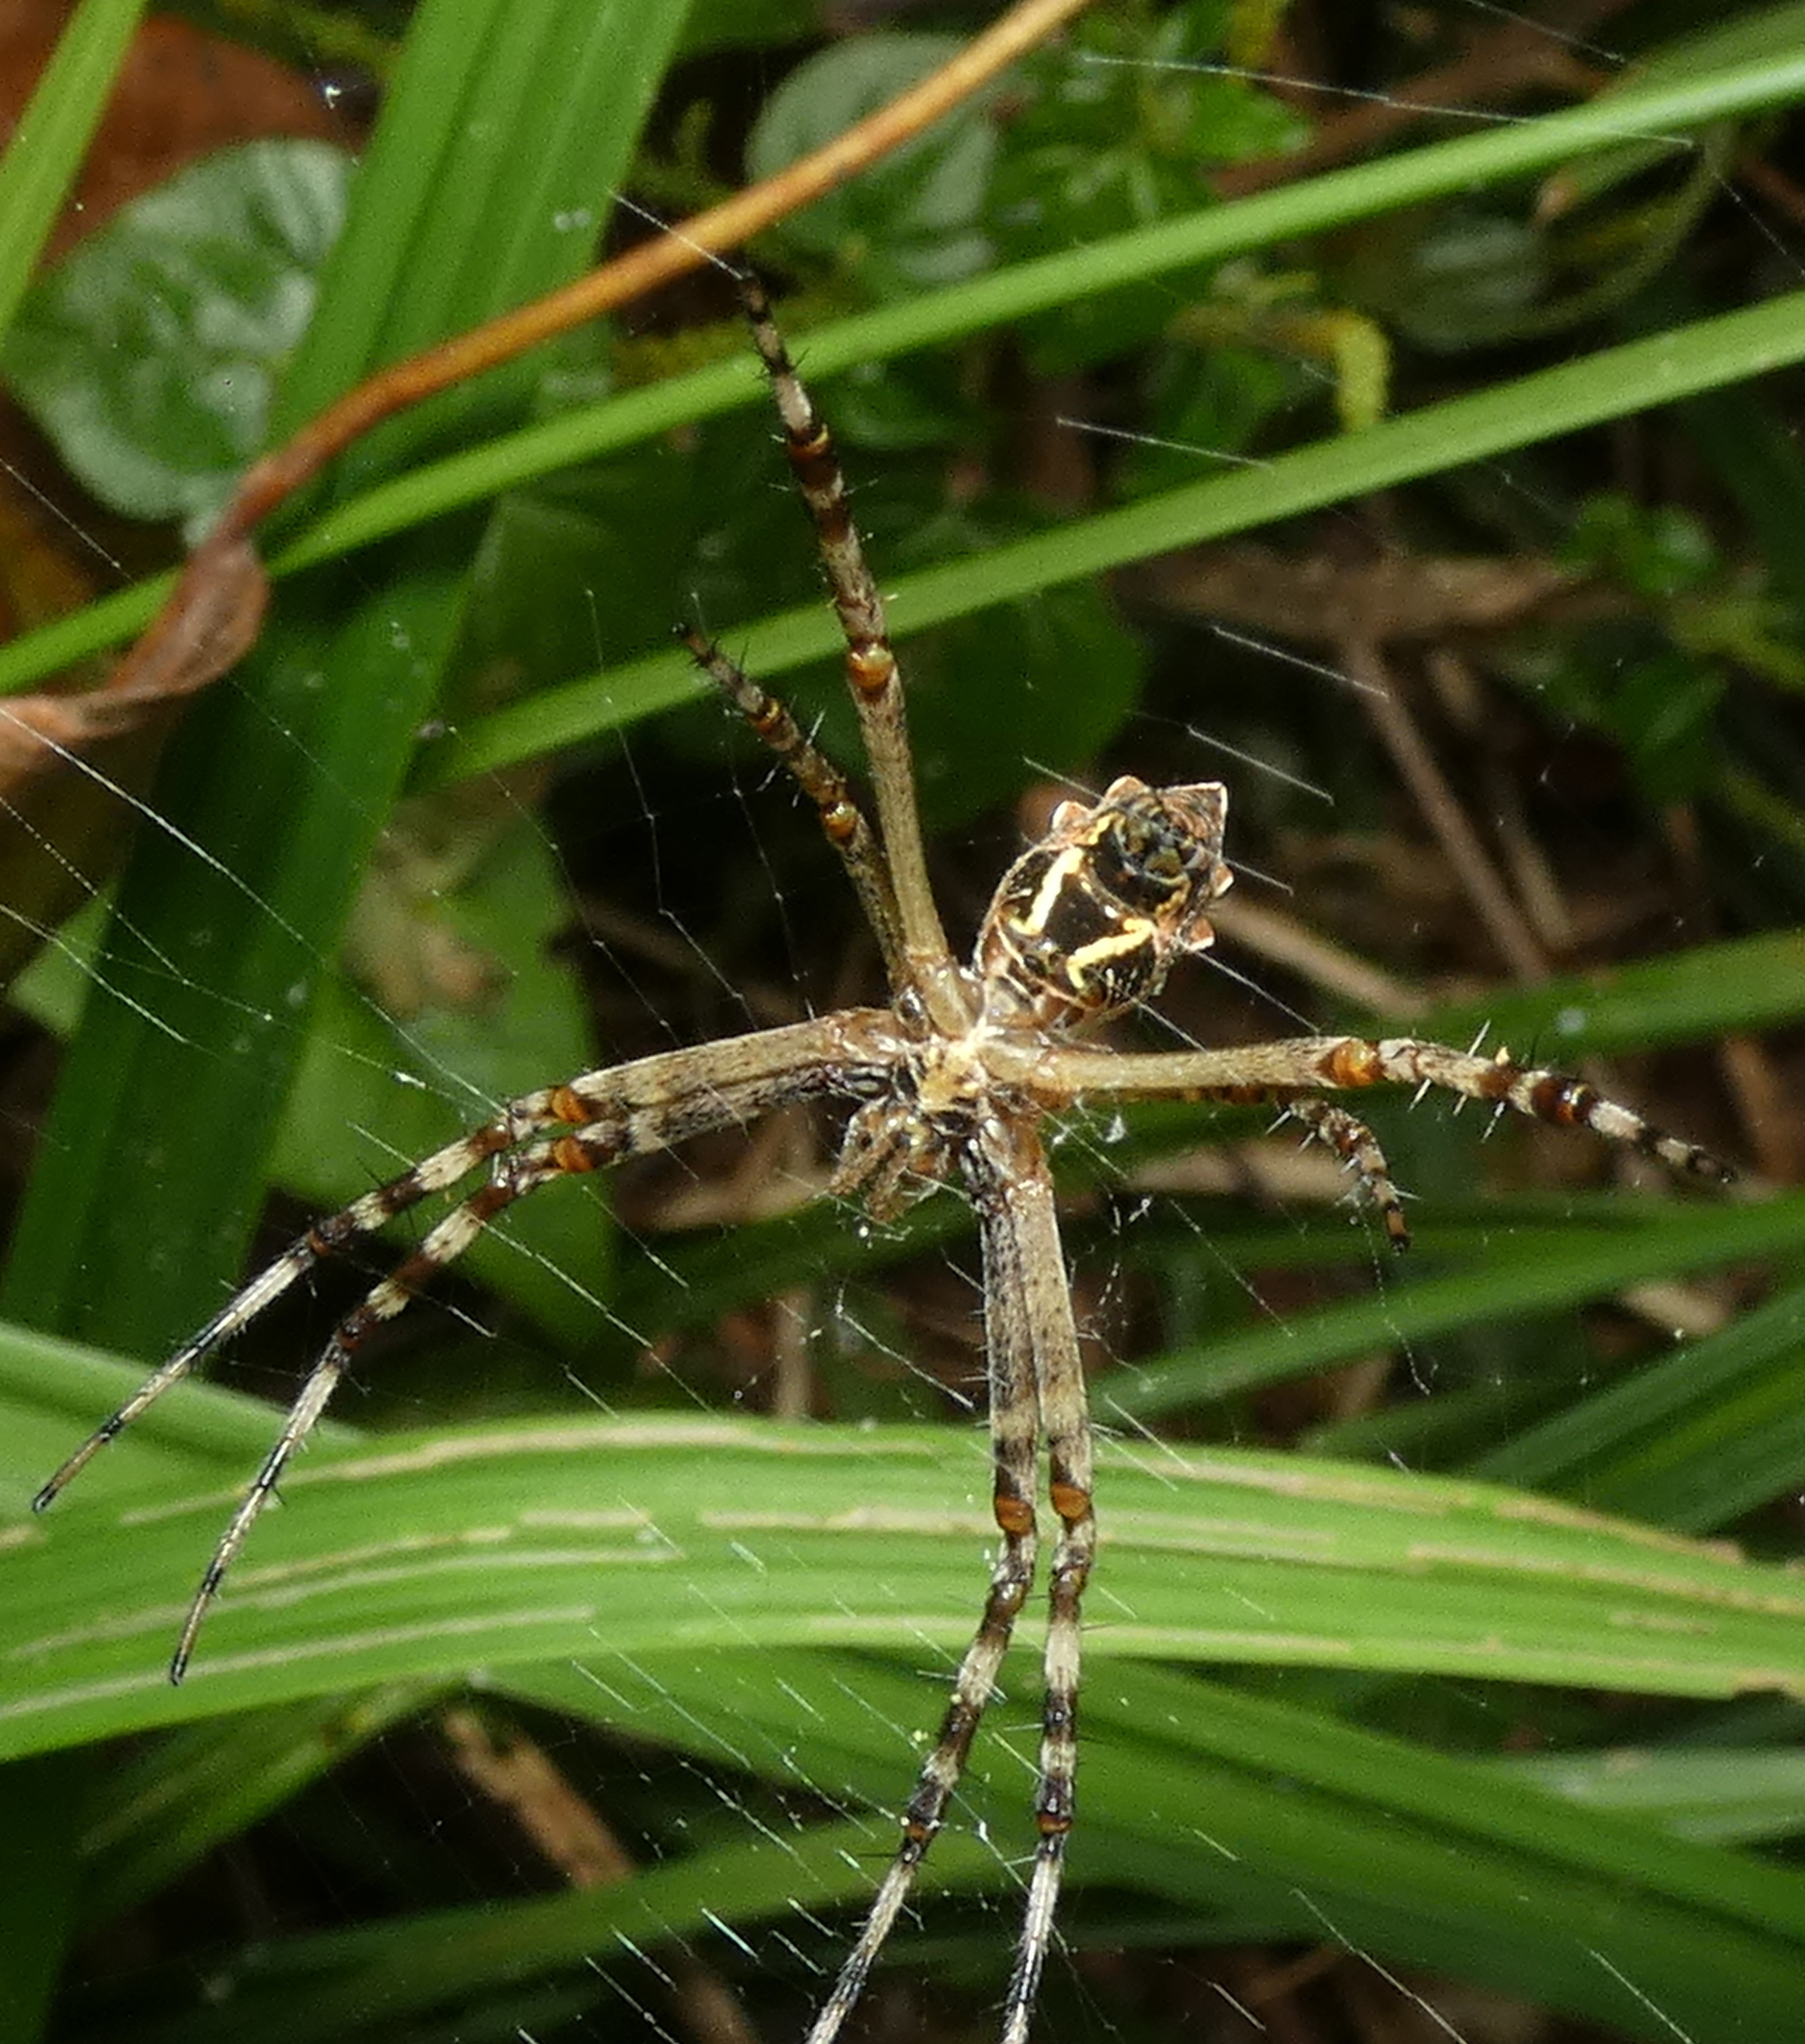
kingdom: Animalia
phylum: Arthropoda
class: Arachnida
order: Araneae
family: Araneidae
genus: Argiope
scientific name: Argiope argentata
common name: Orb weavers
